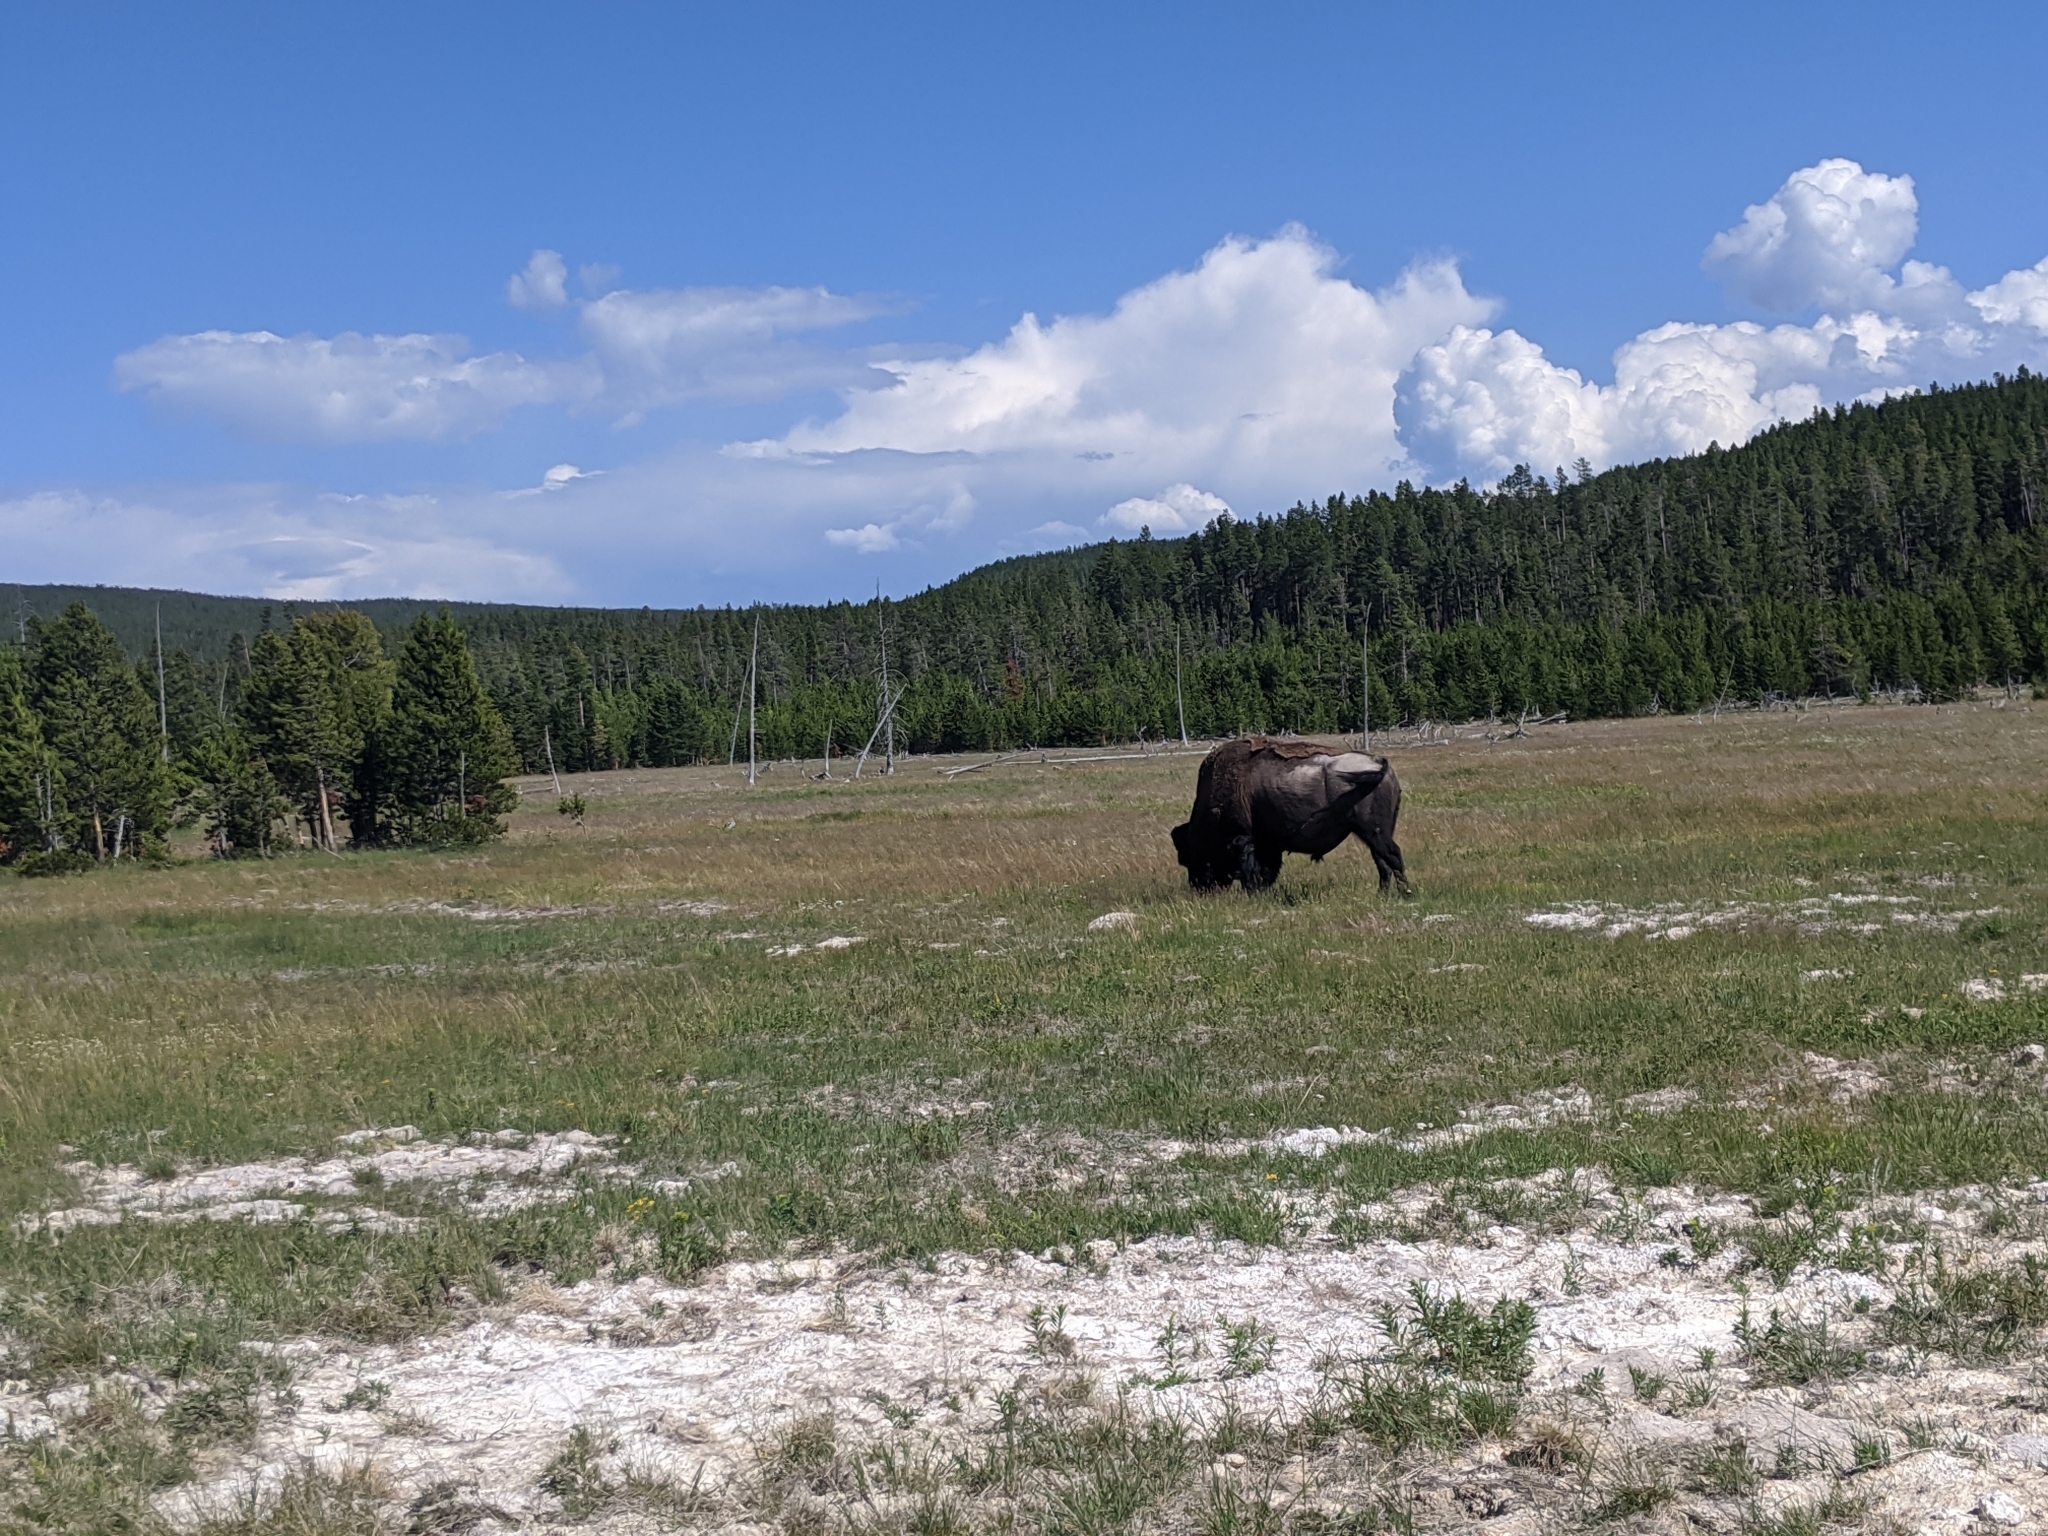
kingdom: Animalia
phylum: Chordata
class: Mammalia
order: Artiodactyla
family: Bovidae
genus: Bison
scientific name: Bison bison
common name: American bison
